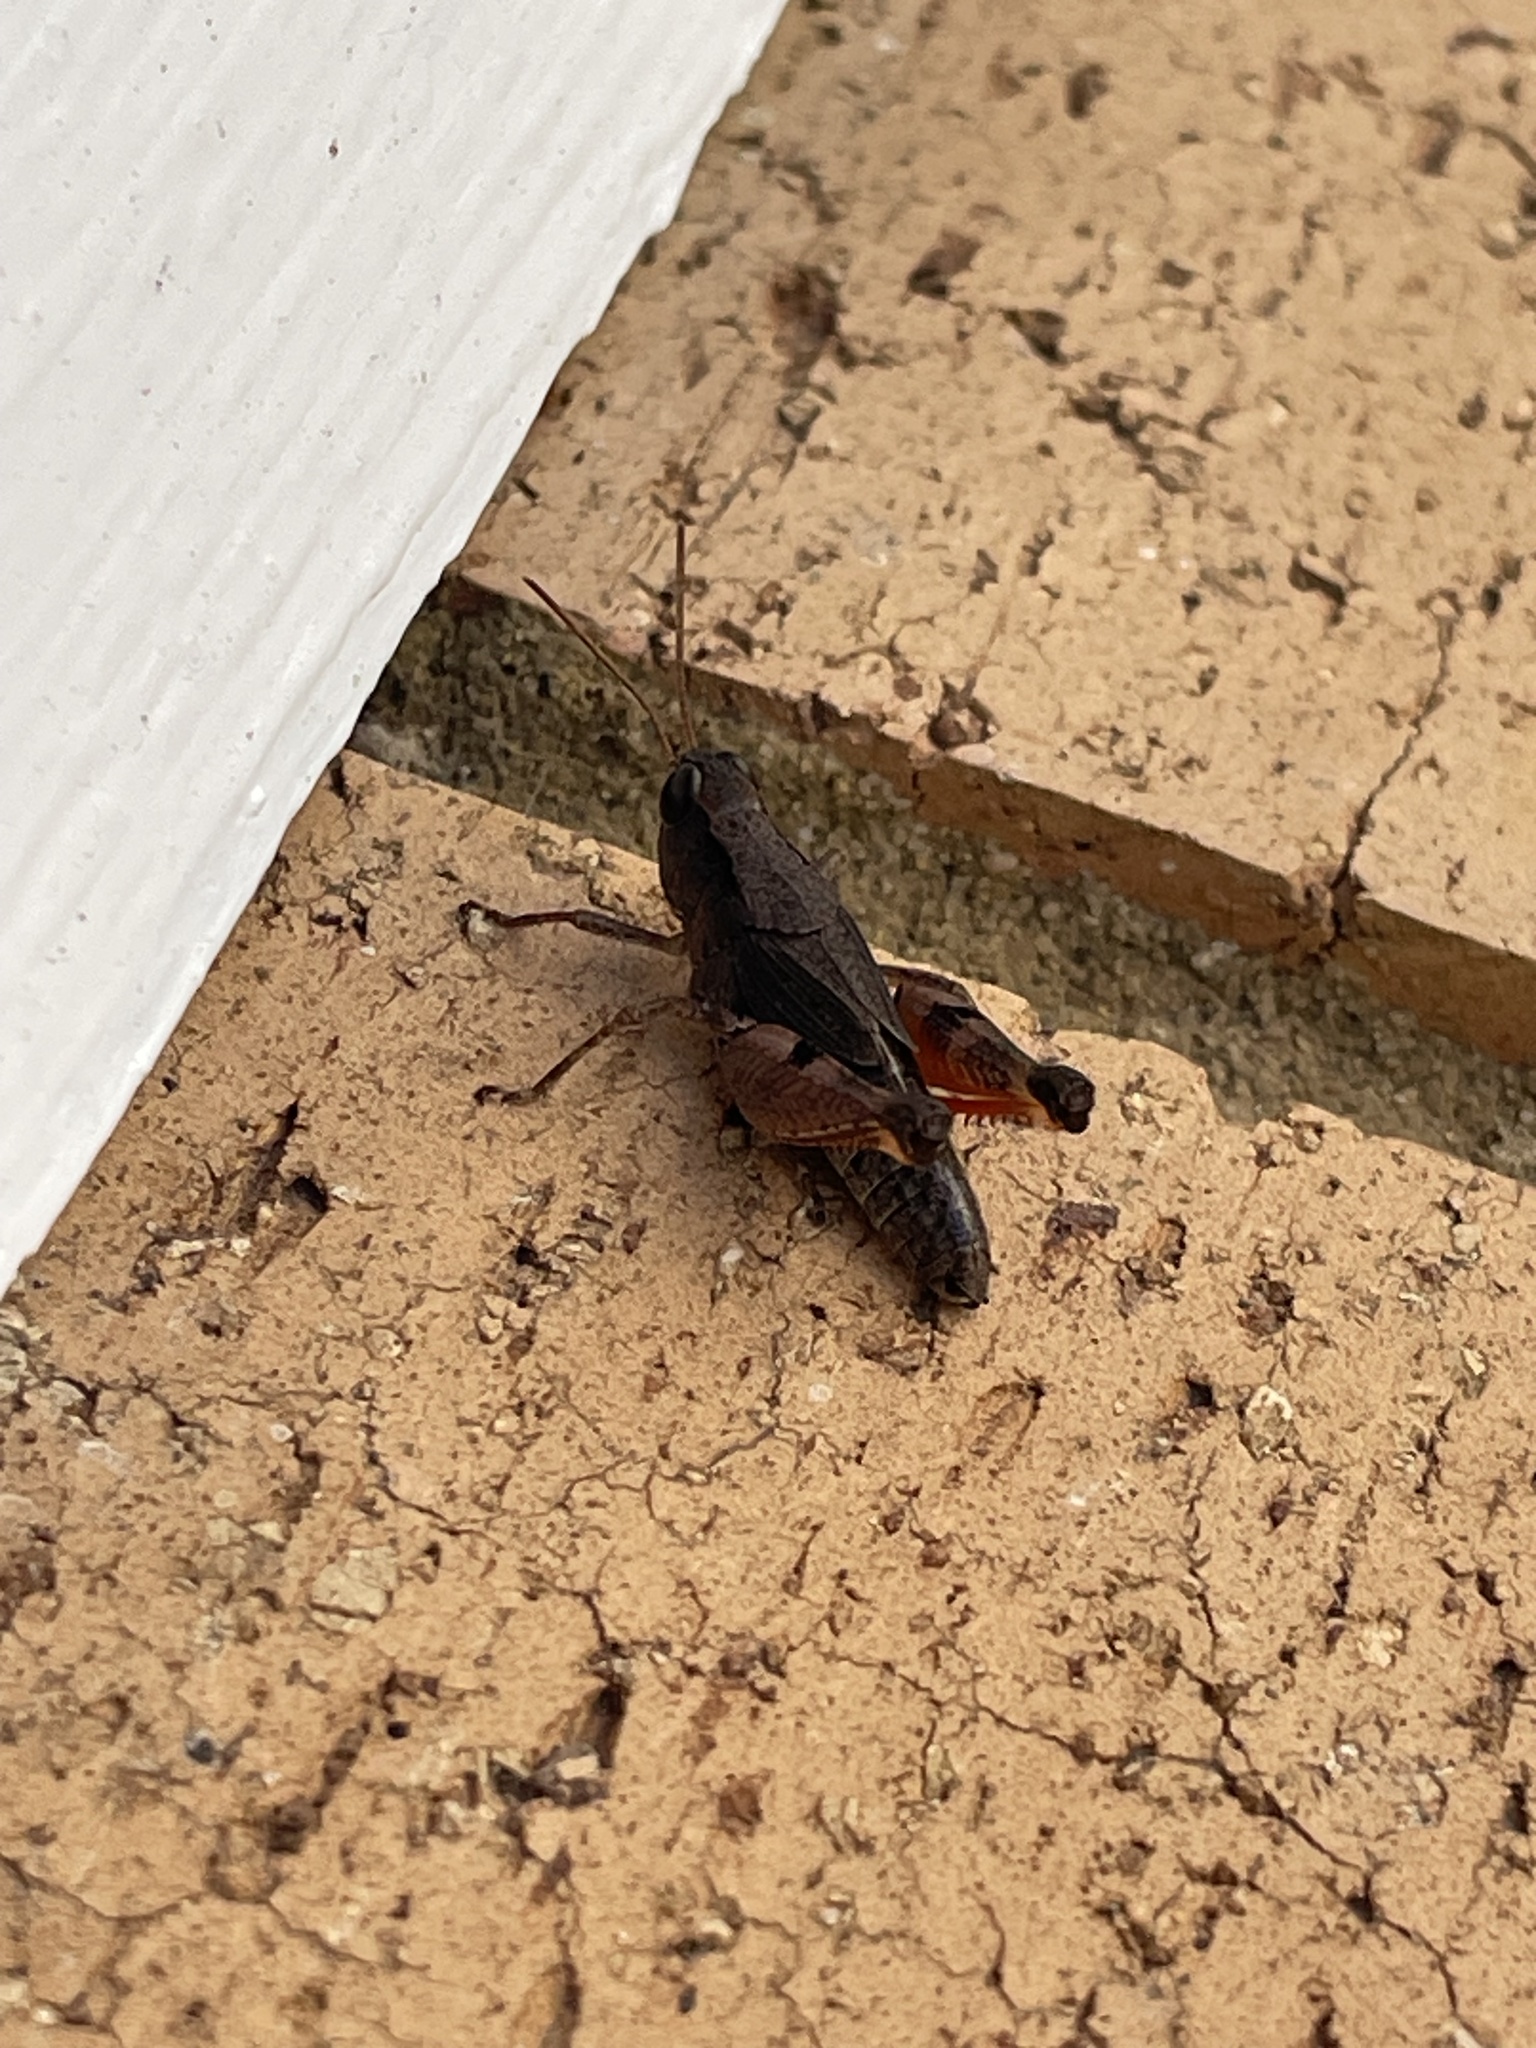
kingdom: Animalia
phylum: Arthropoda
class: Insecta
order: Orthoptera
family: Acrididae
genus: Phaulacridium
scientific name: Phaulacridium vittatum
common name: Wingless grasshopper
